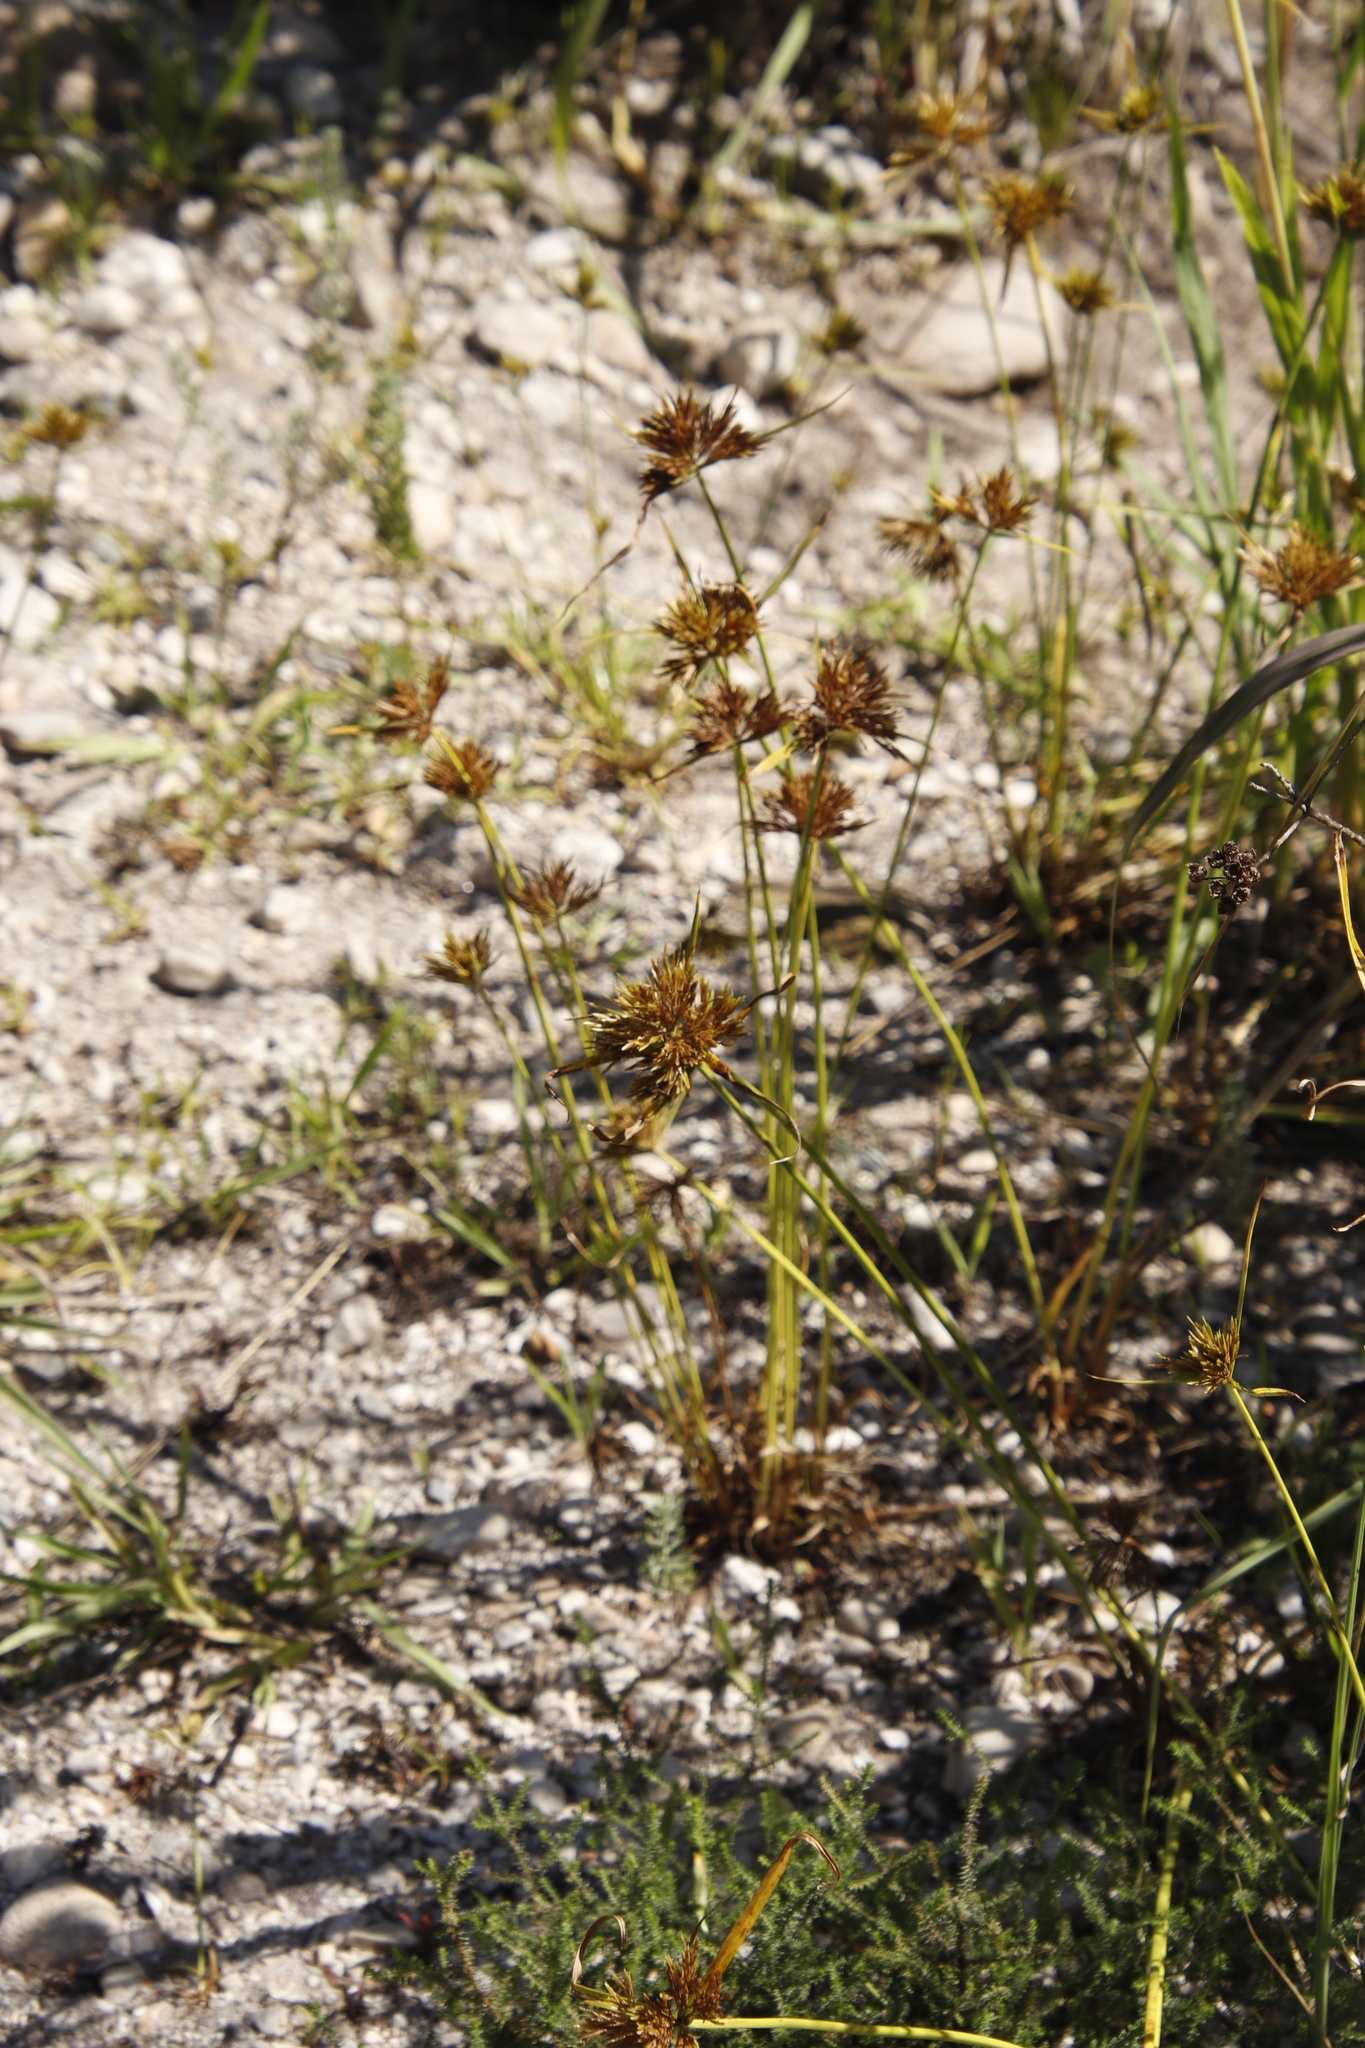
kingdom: Plantae
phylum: Tracheophyta
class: Liliopsida
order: Poales
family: Cyperaceae
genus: Cyperus
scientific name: Cyperus polystachyos
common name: Bunchy flat sedge
